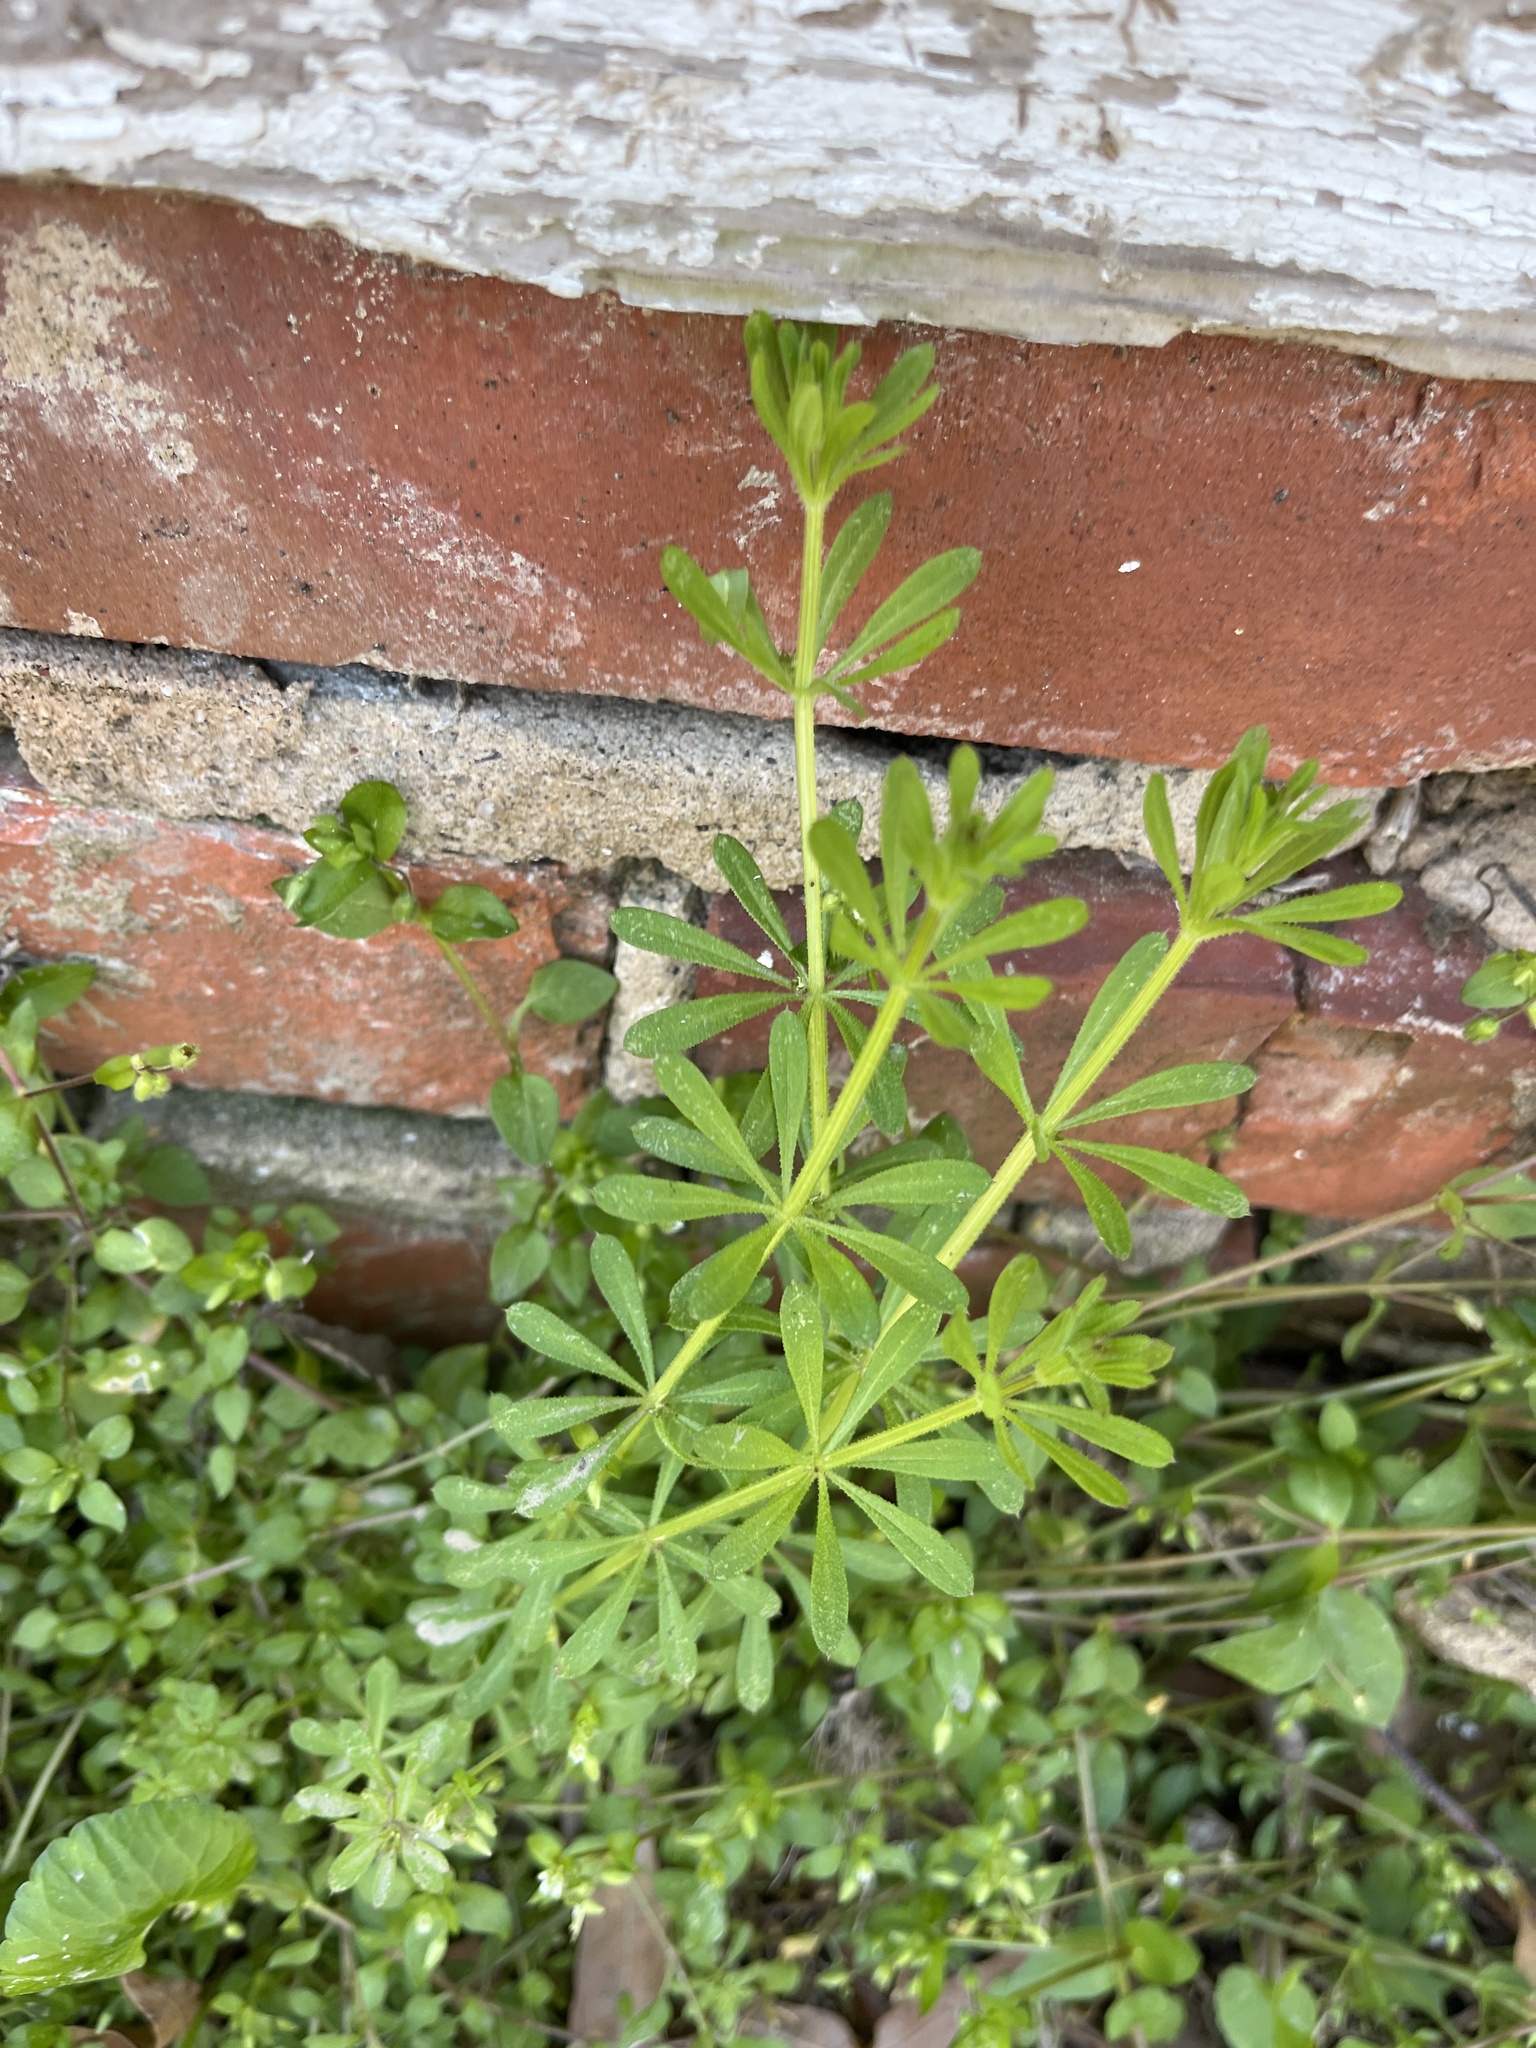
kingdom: Plantae
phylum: Tracheophyta
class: Magnoliopsida
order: Gentianales
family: Rubiaceae
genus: Galium
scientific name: Galium aparine
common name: Cleavers
